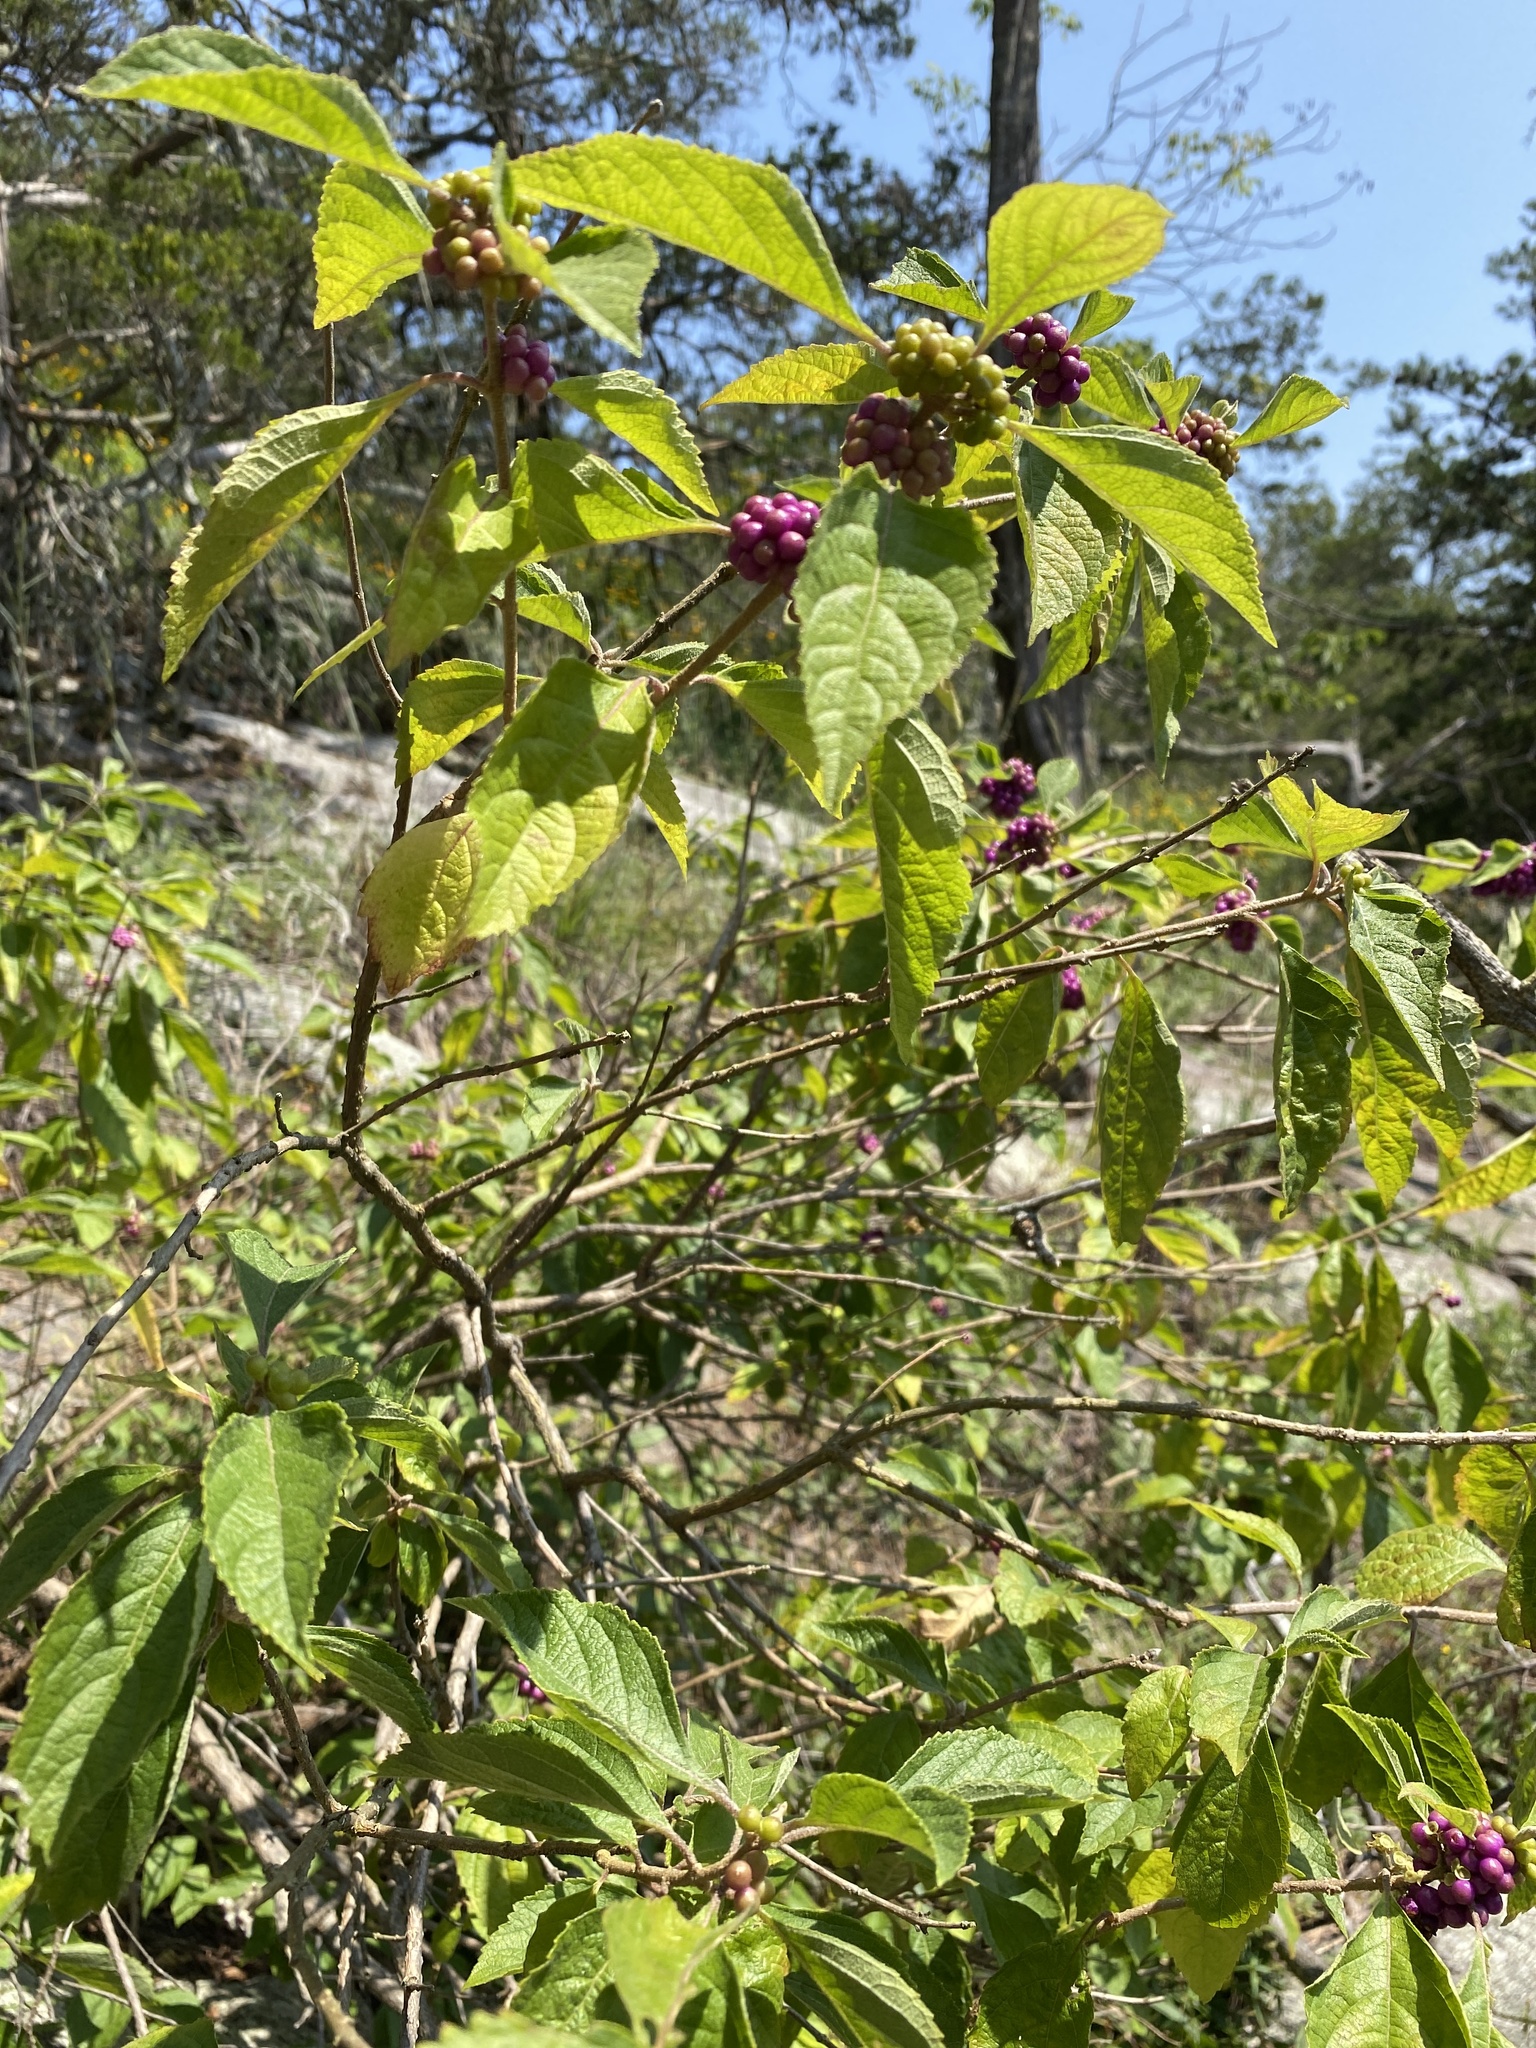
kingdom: Plantae
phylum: Tracheophyta
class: Magnoliopsida
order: Lamiales
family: Lamiaceae
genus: Callicarpa
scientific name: Callicarpa americana
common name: American beautyberry
